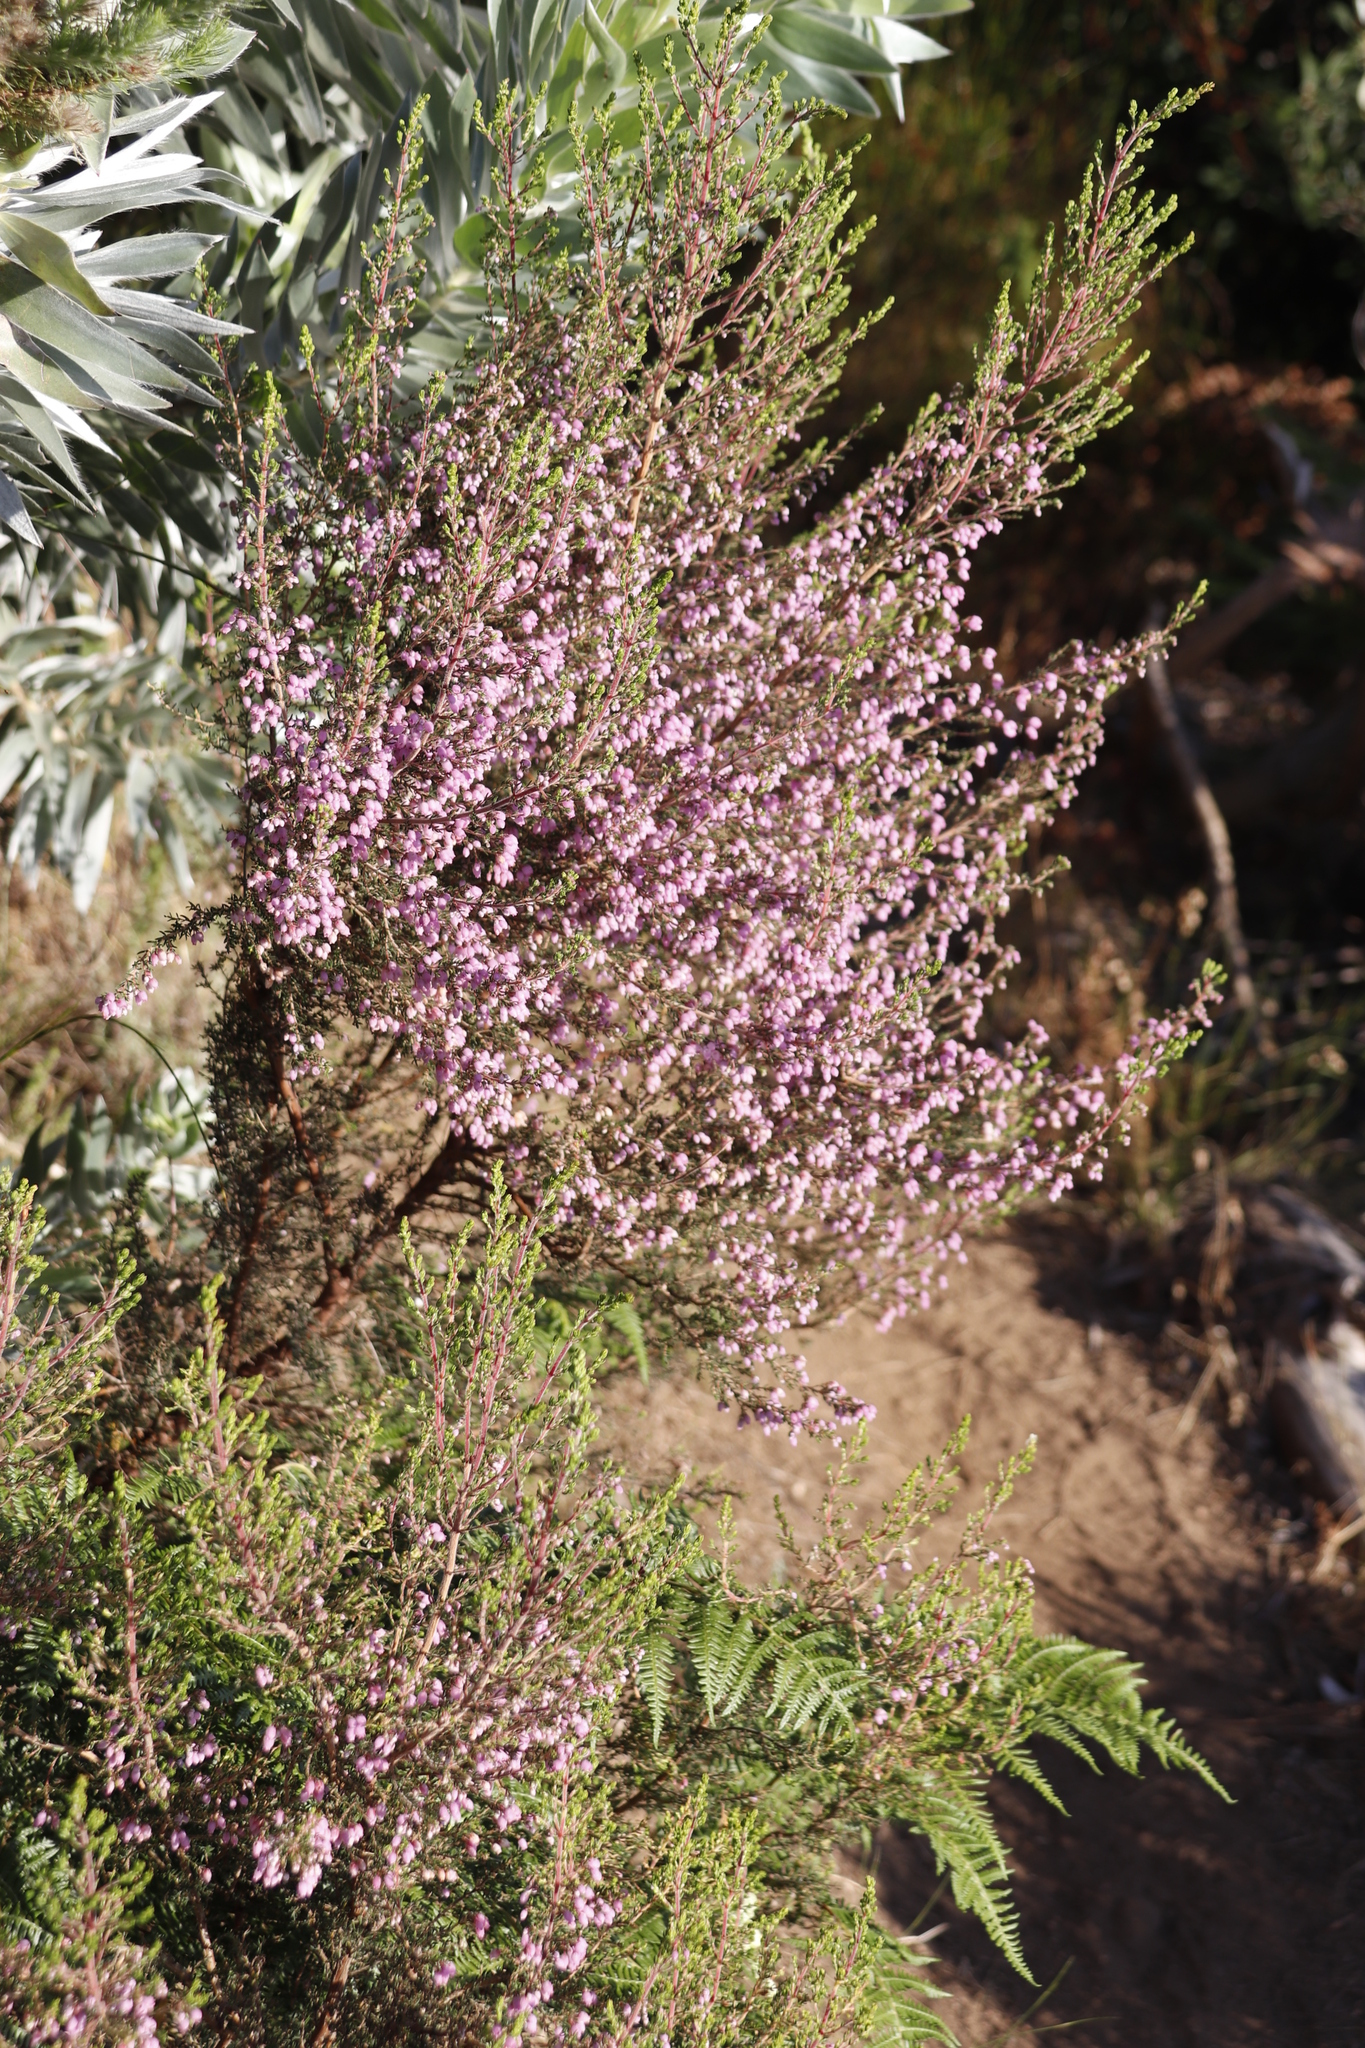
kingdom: Plantae
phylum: Tracheophyta
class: Magnoliopsida
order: Ericales
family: Ericaceae
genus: Erica
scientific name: Erica hirtiflora
